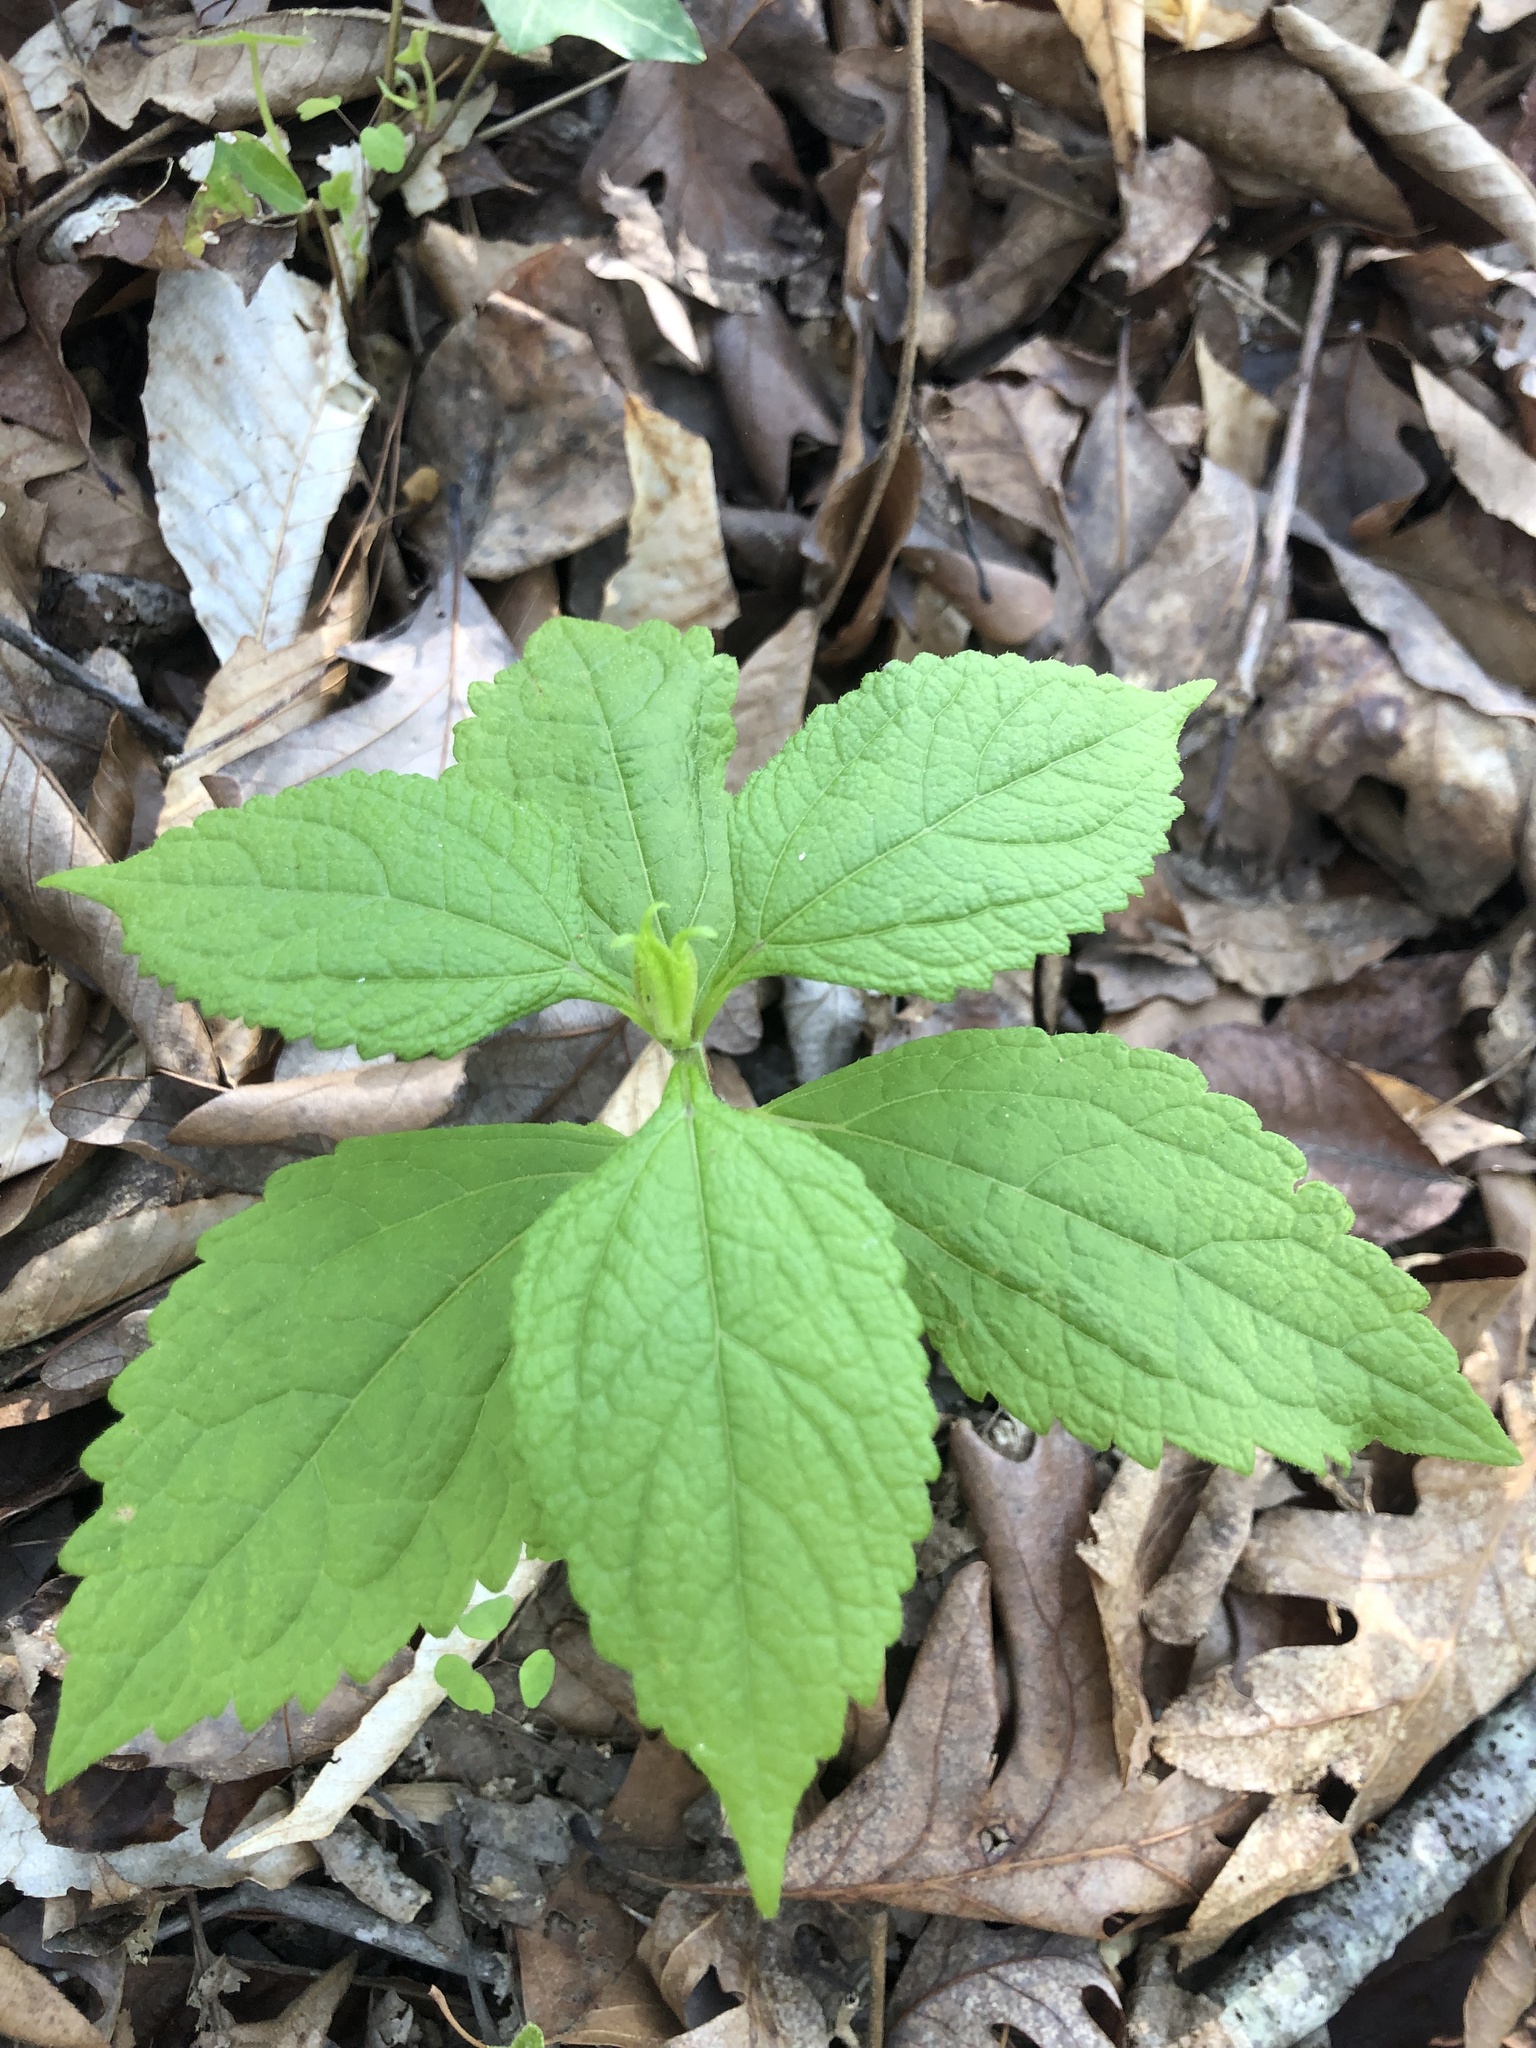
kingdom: Plantae
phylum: Tracheophyta
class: Magnoliopsida
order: Asterales
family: Asteraceae
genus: Eutrochium
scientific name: Eutrochium purpureum
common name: Gravelroot
